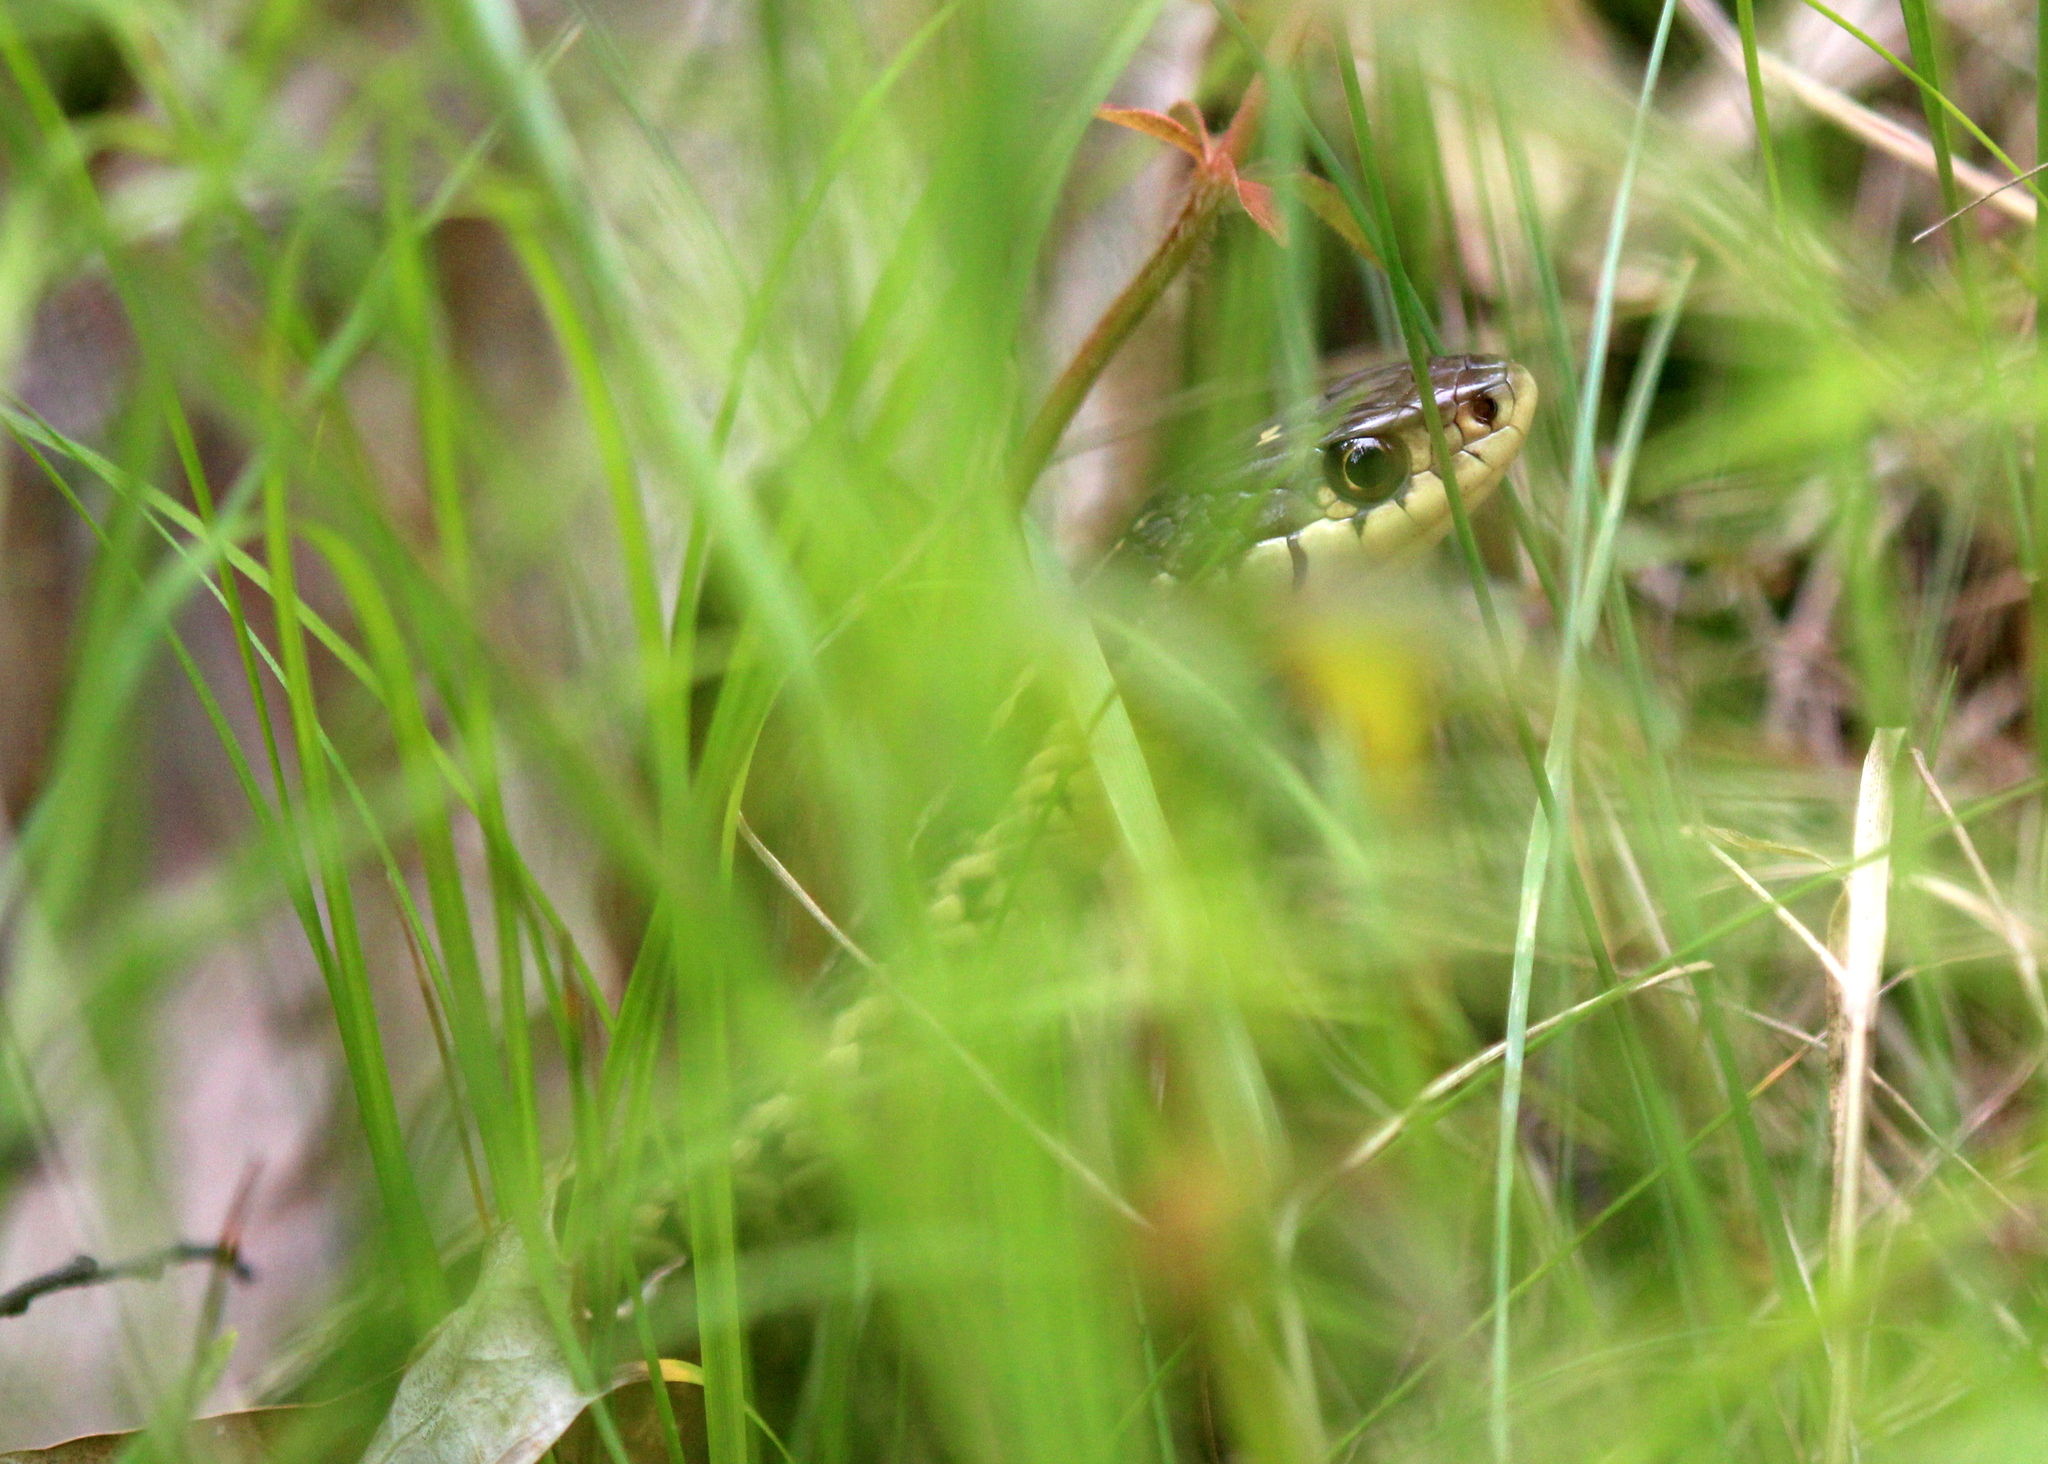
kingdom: Animalia
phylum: Chordata
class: Squamata
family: Colubridae
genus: Thamnophis
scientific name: Thamnophis sirtalis
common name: Common garter snake
